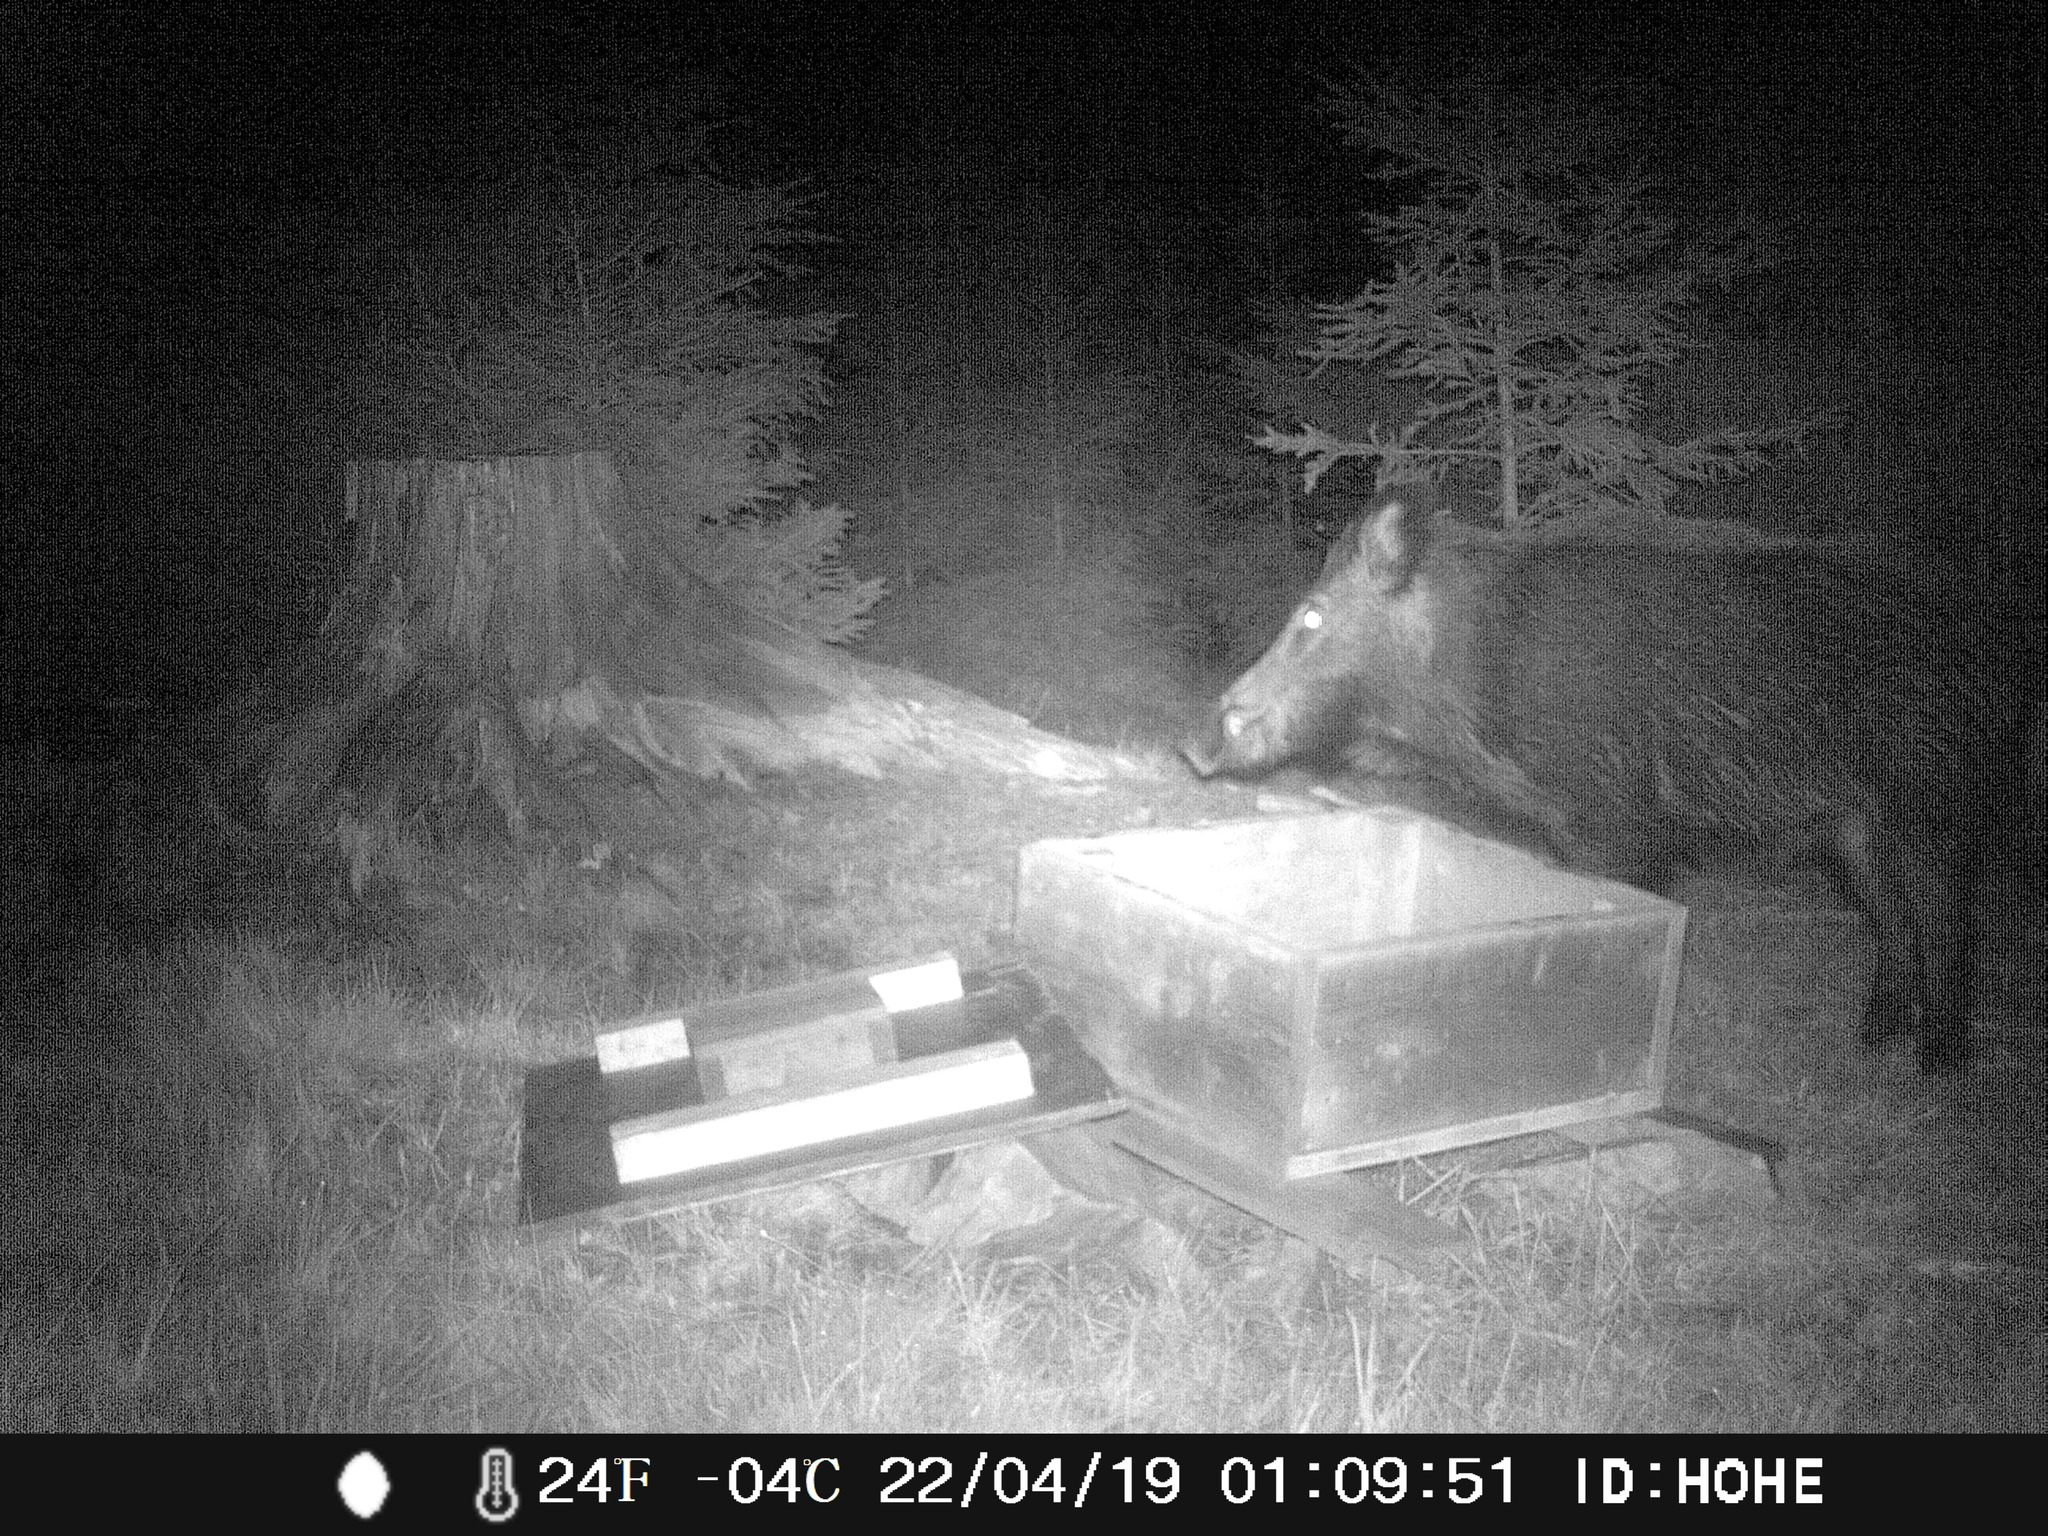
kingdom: Animalia
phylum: Chordata
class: Mammalia
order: Artiodactyla
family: Suidae
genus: Sus
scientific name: Sus scrofa
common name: Wild boar
